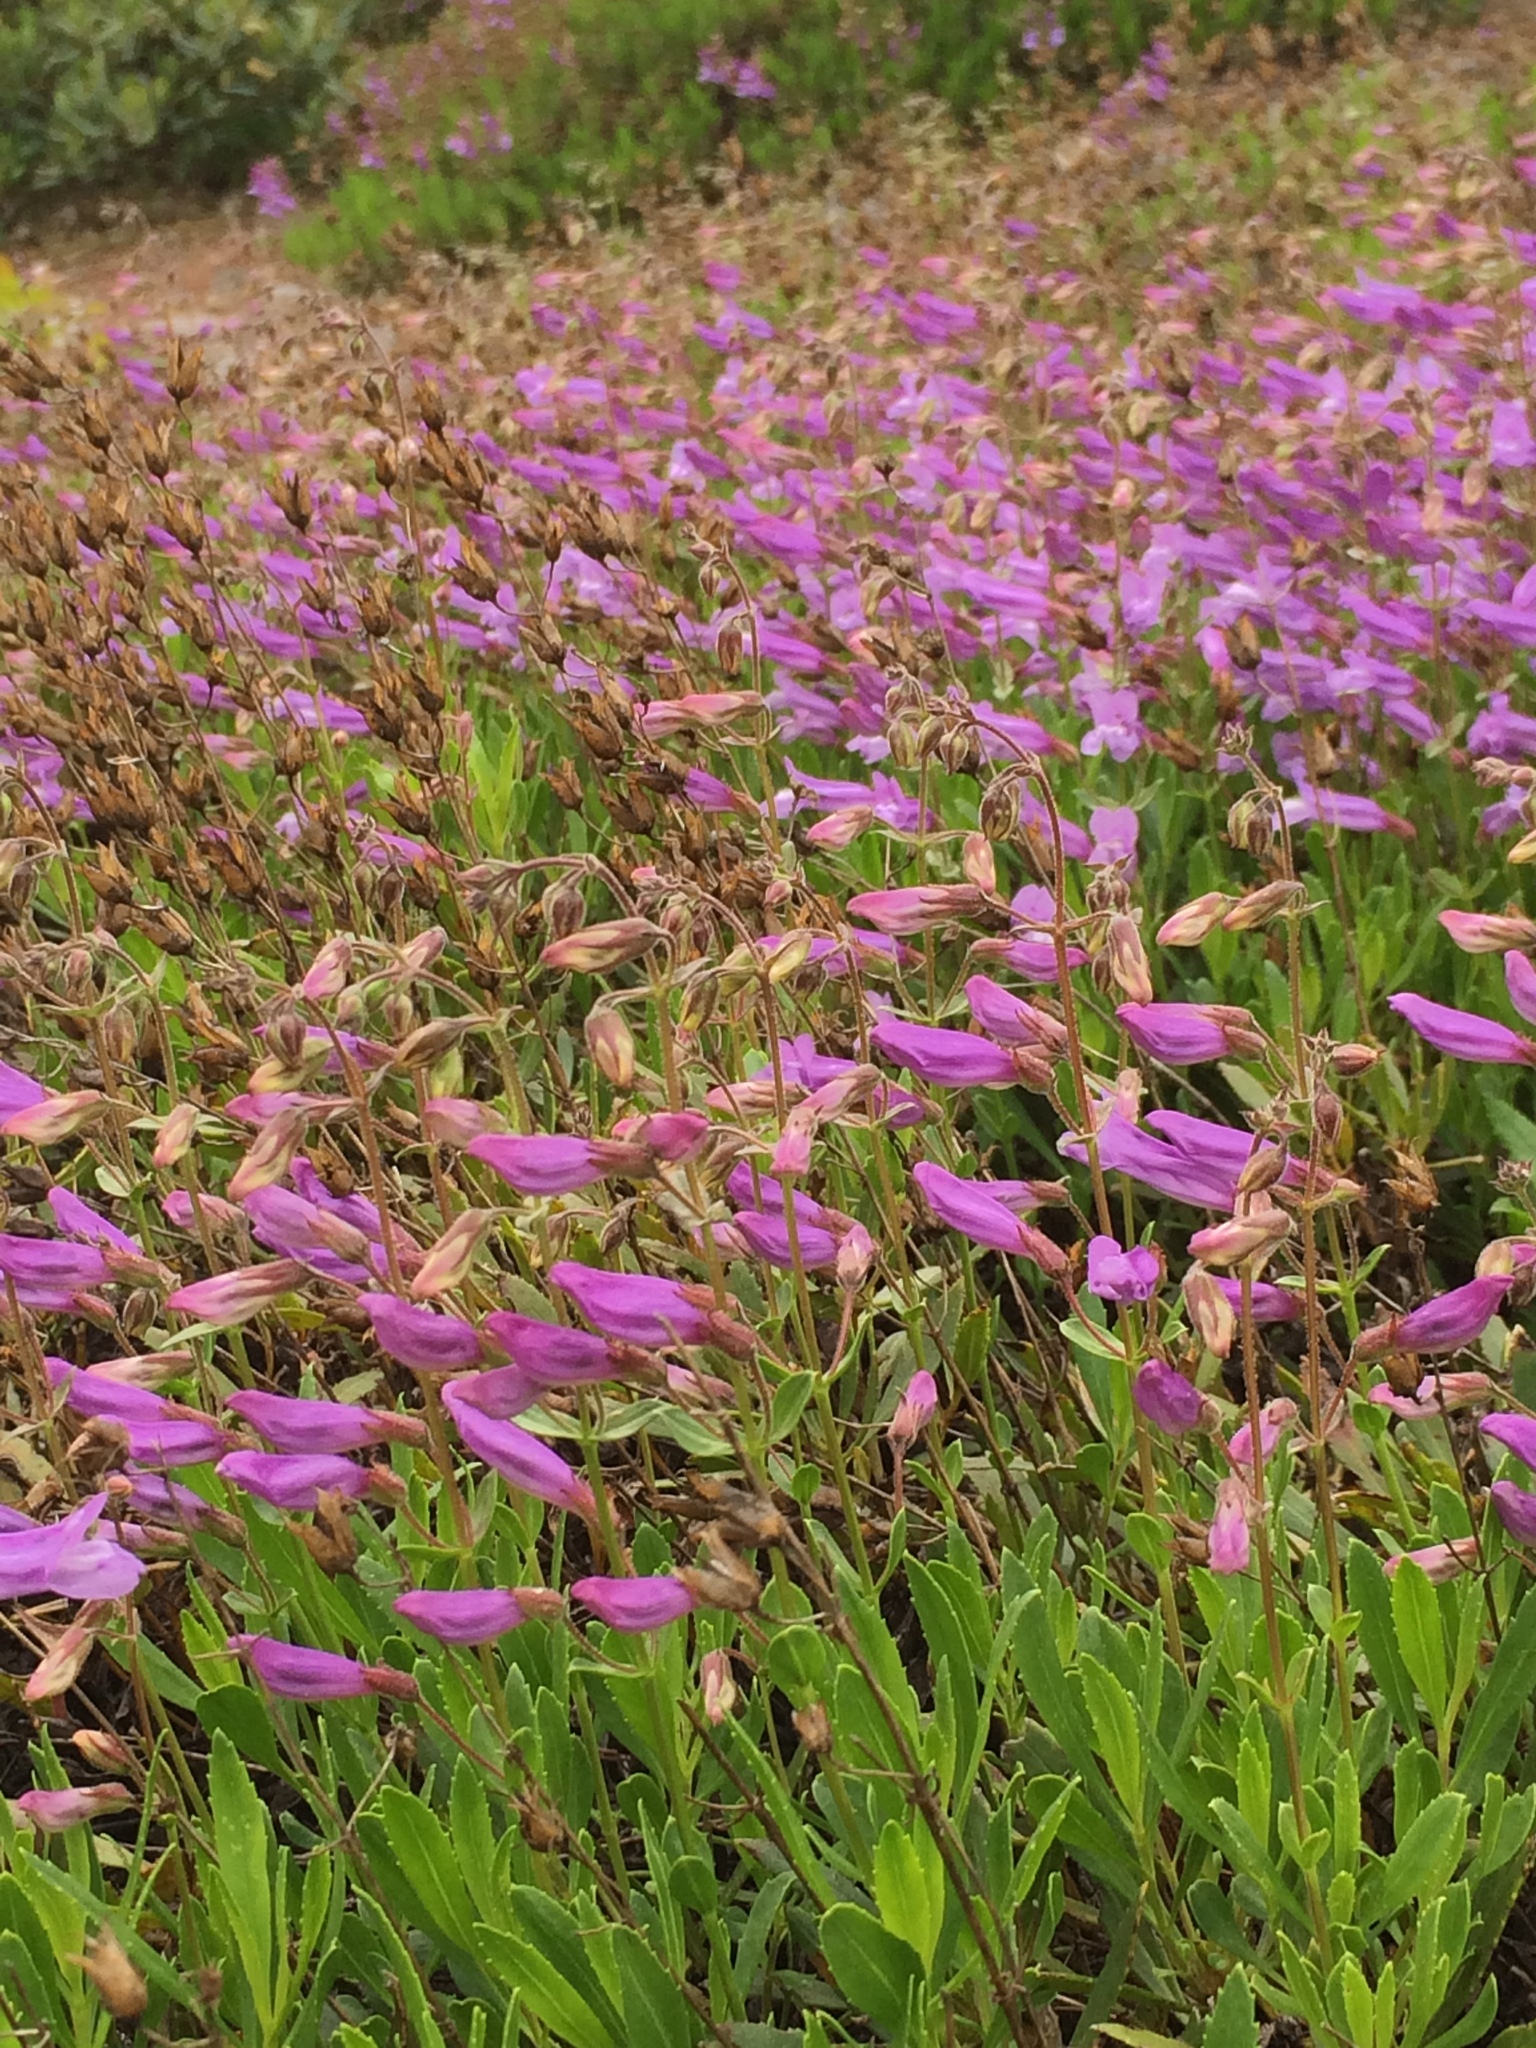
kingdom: Plantae
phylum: Tracheophyta
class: Magnoliopsida
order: Lamiales
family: Plantaginaceae
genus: Penstemon
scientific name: Penstemon cardwellii
